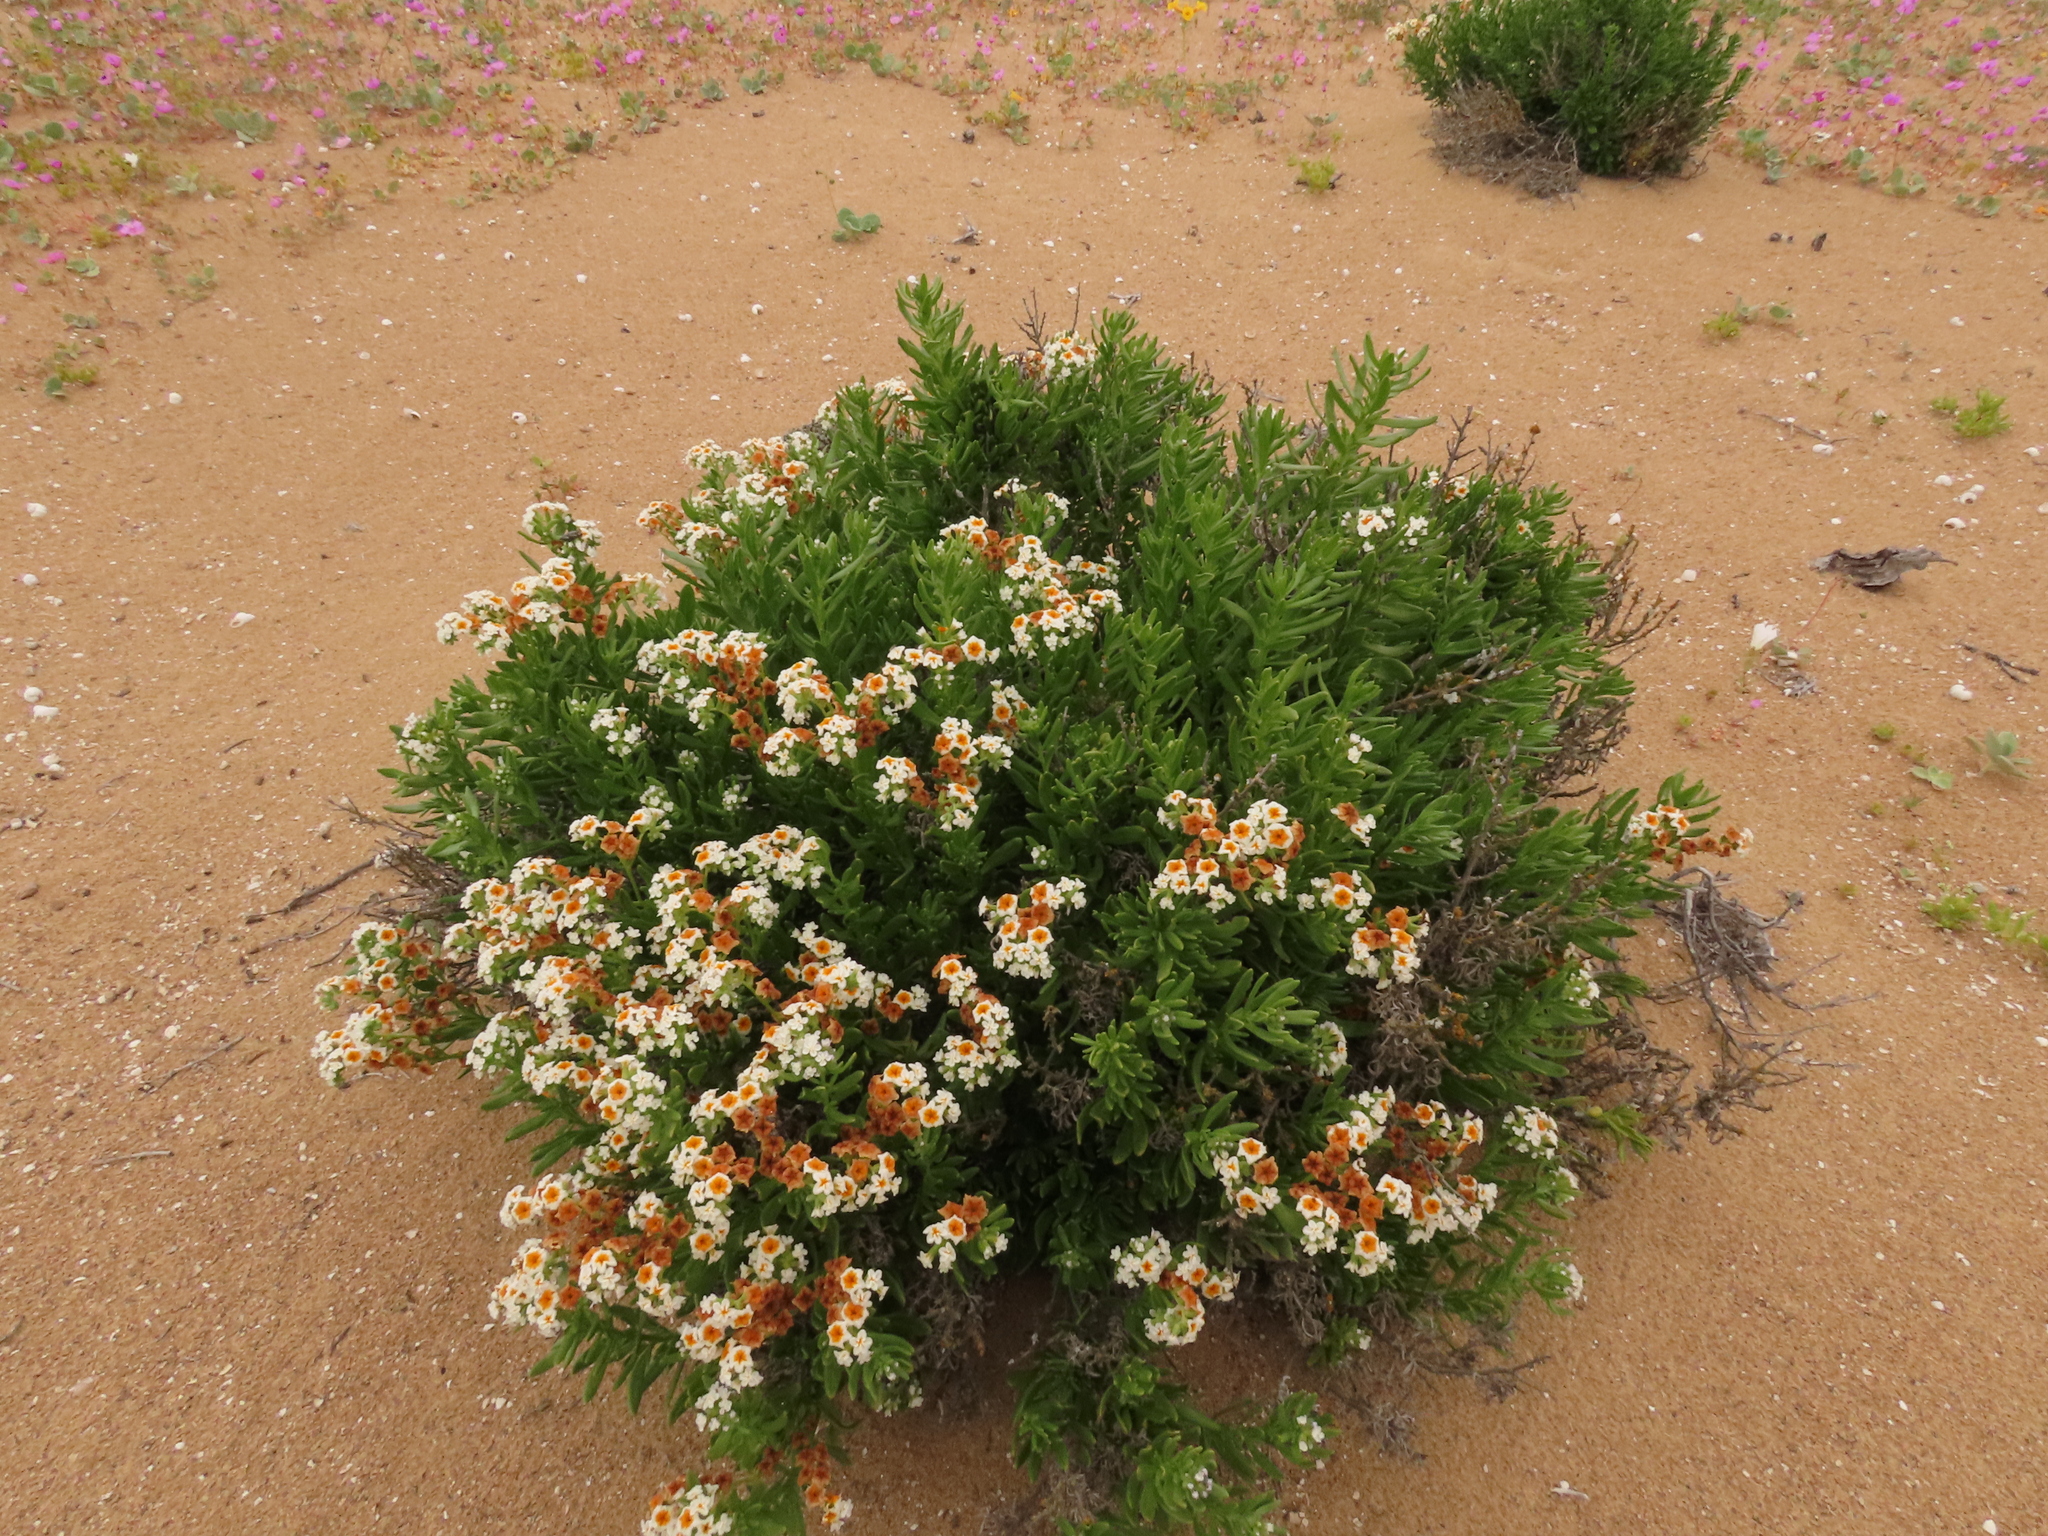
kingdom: Plantae
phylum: Tracheophyta
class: Magnoliopsida
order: Boraginales
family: Heliotropiaceae
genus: Heliotropium
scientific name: Heliotropium floridum
